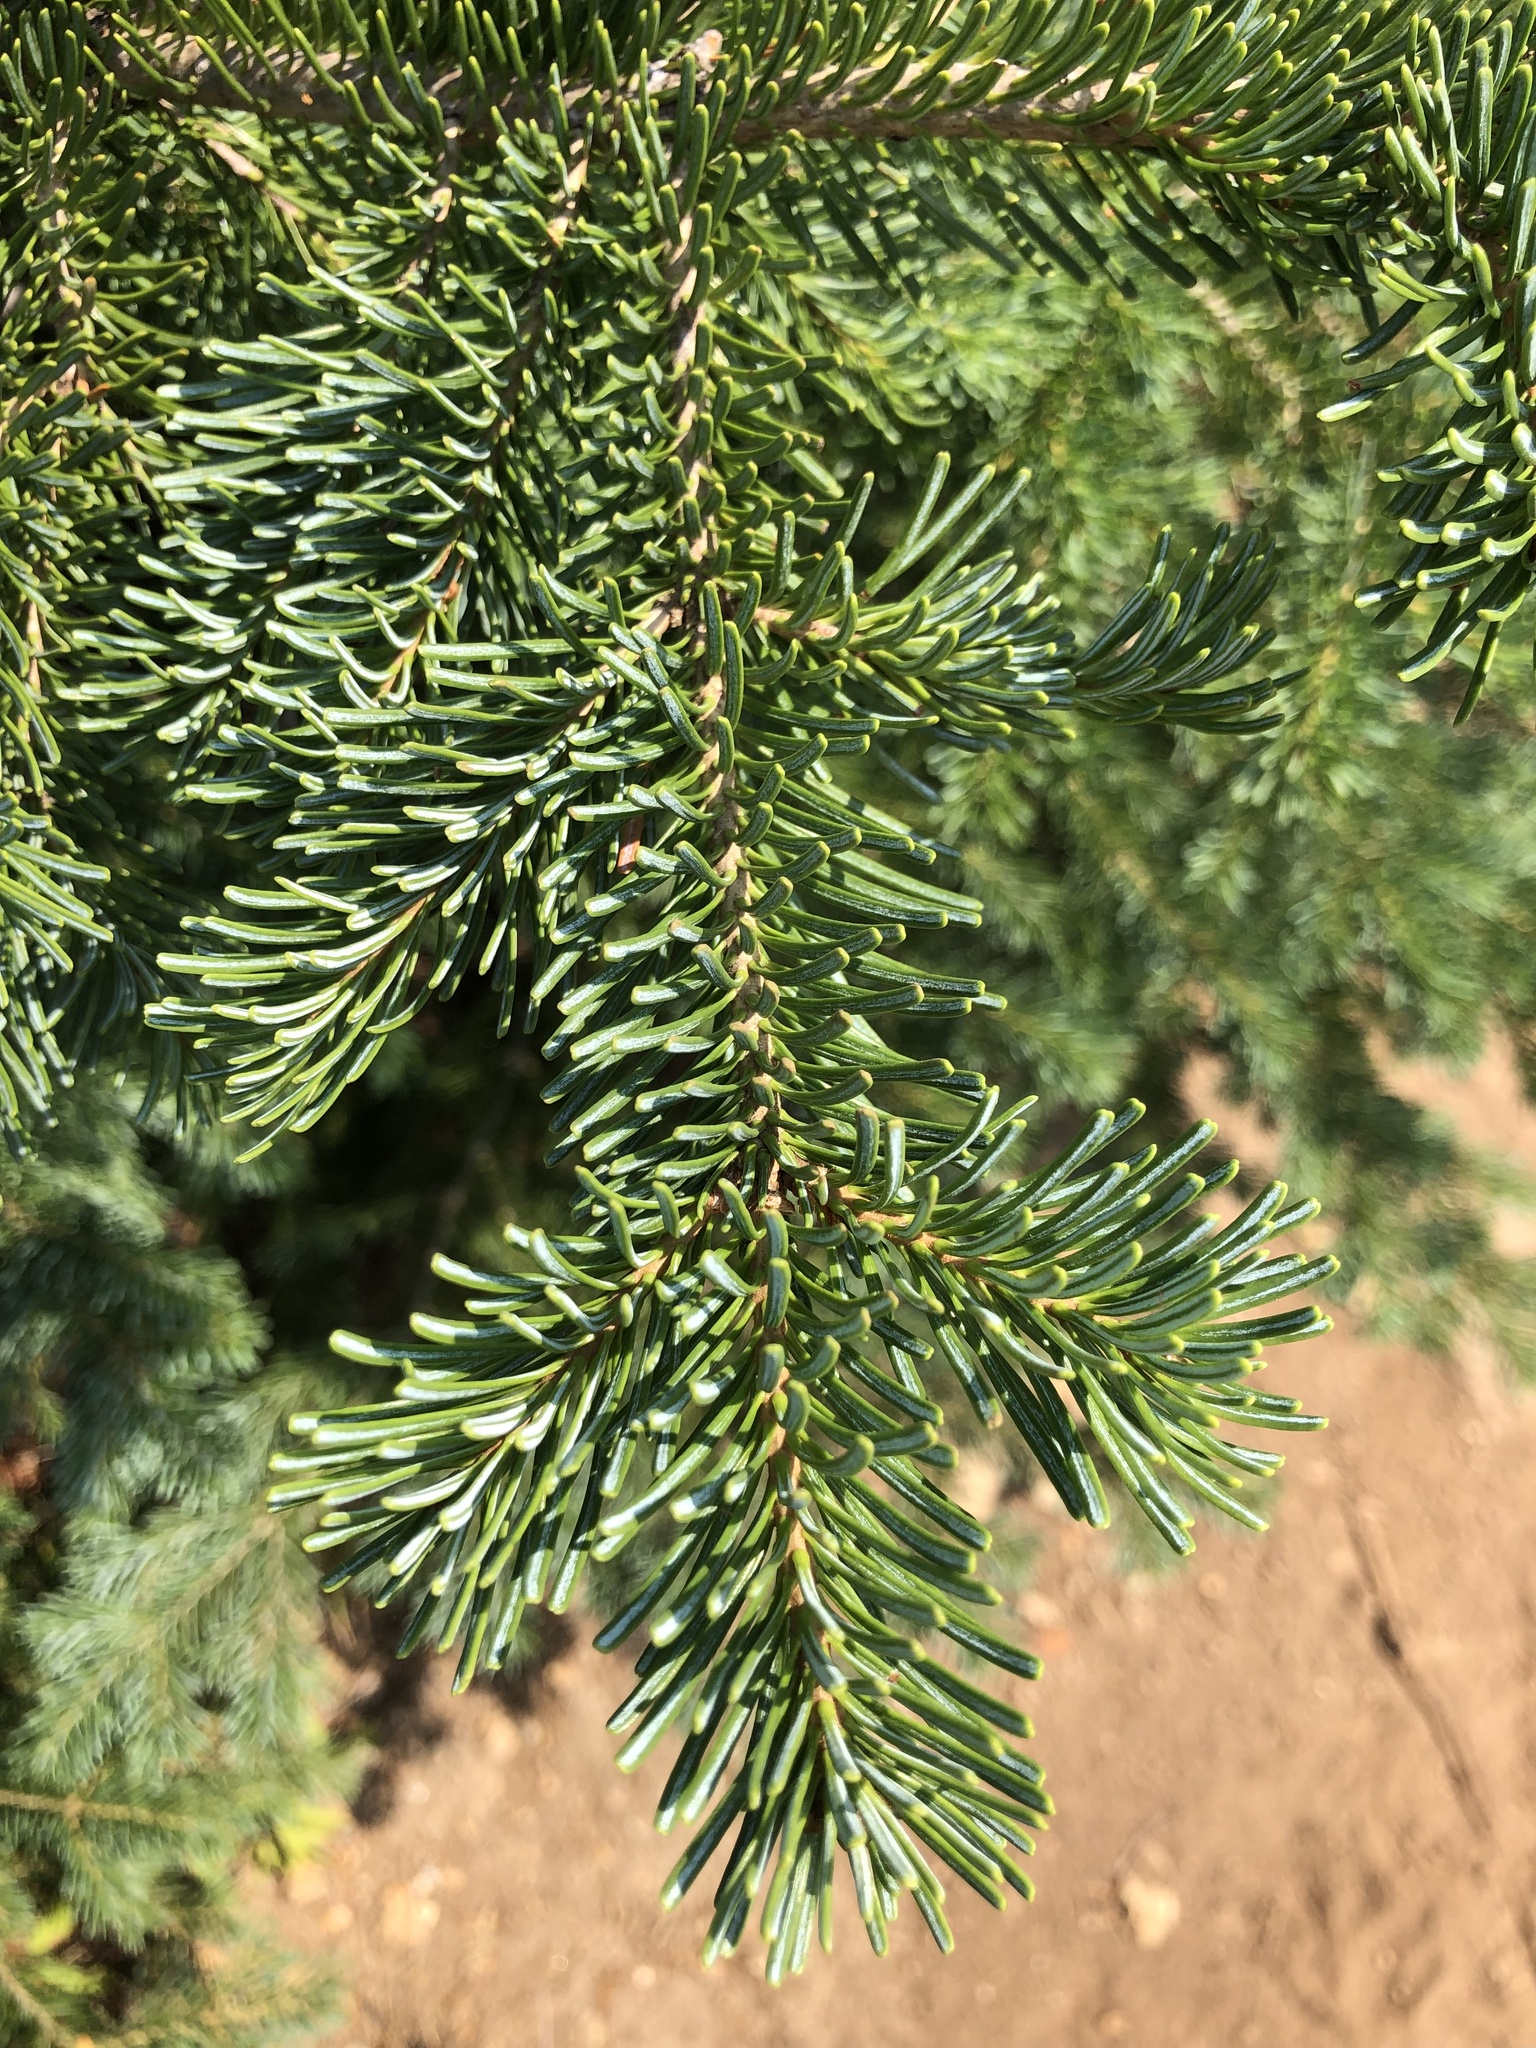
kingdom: Plantae
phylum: Tracheophyta
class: Pinopsida
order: Pinales
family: Pinaceae
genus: Abies
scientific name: Abies lasiocarpa
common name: Subalpine fir
